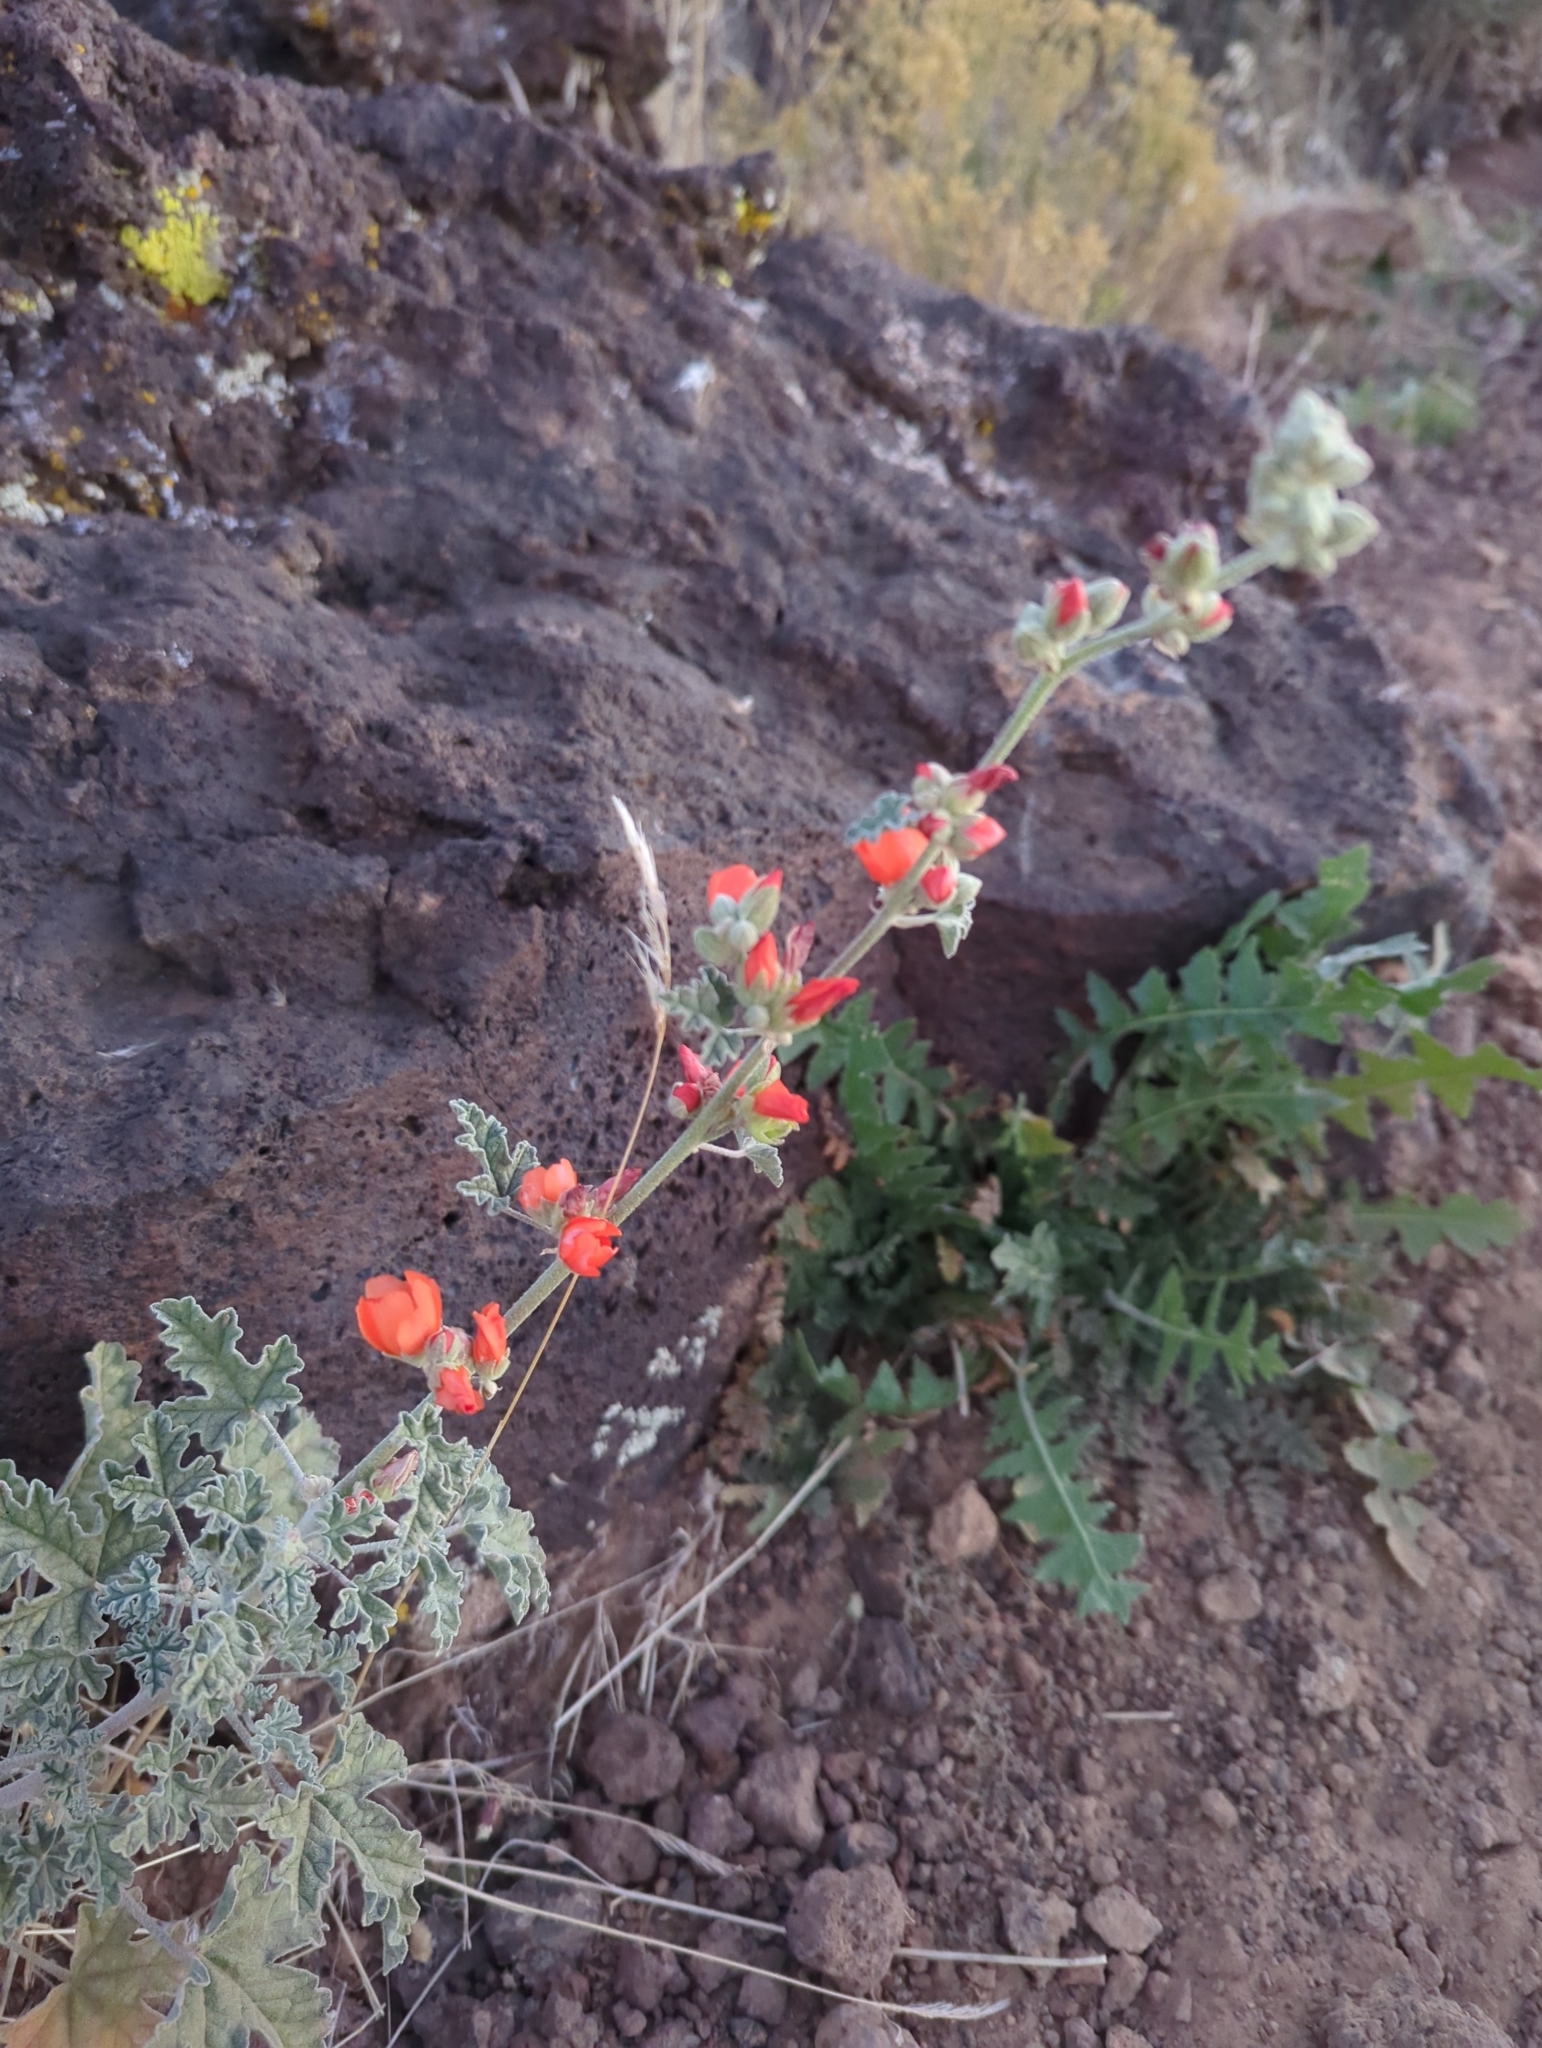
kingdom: Plantae
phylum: Tracheophyta
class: Magnoliopsida
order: Malvales
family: Malvaceae
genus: Sphaeralcea
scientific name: Sphaeralcea grossulariifolia
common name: Current-leaf globe-mallow
